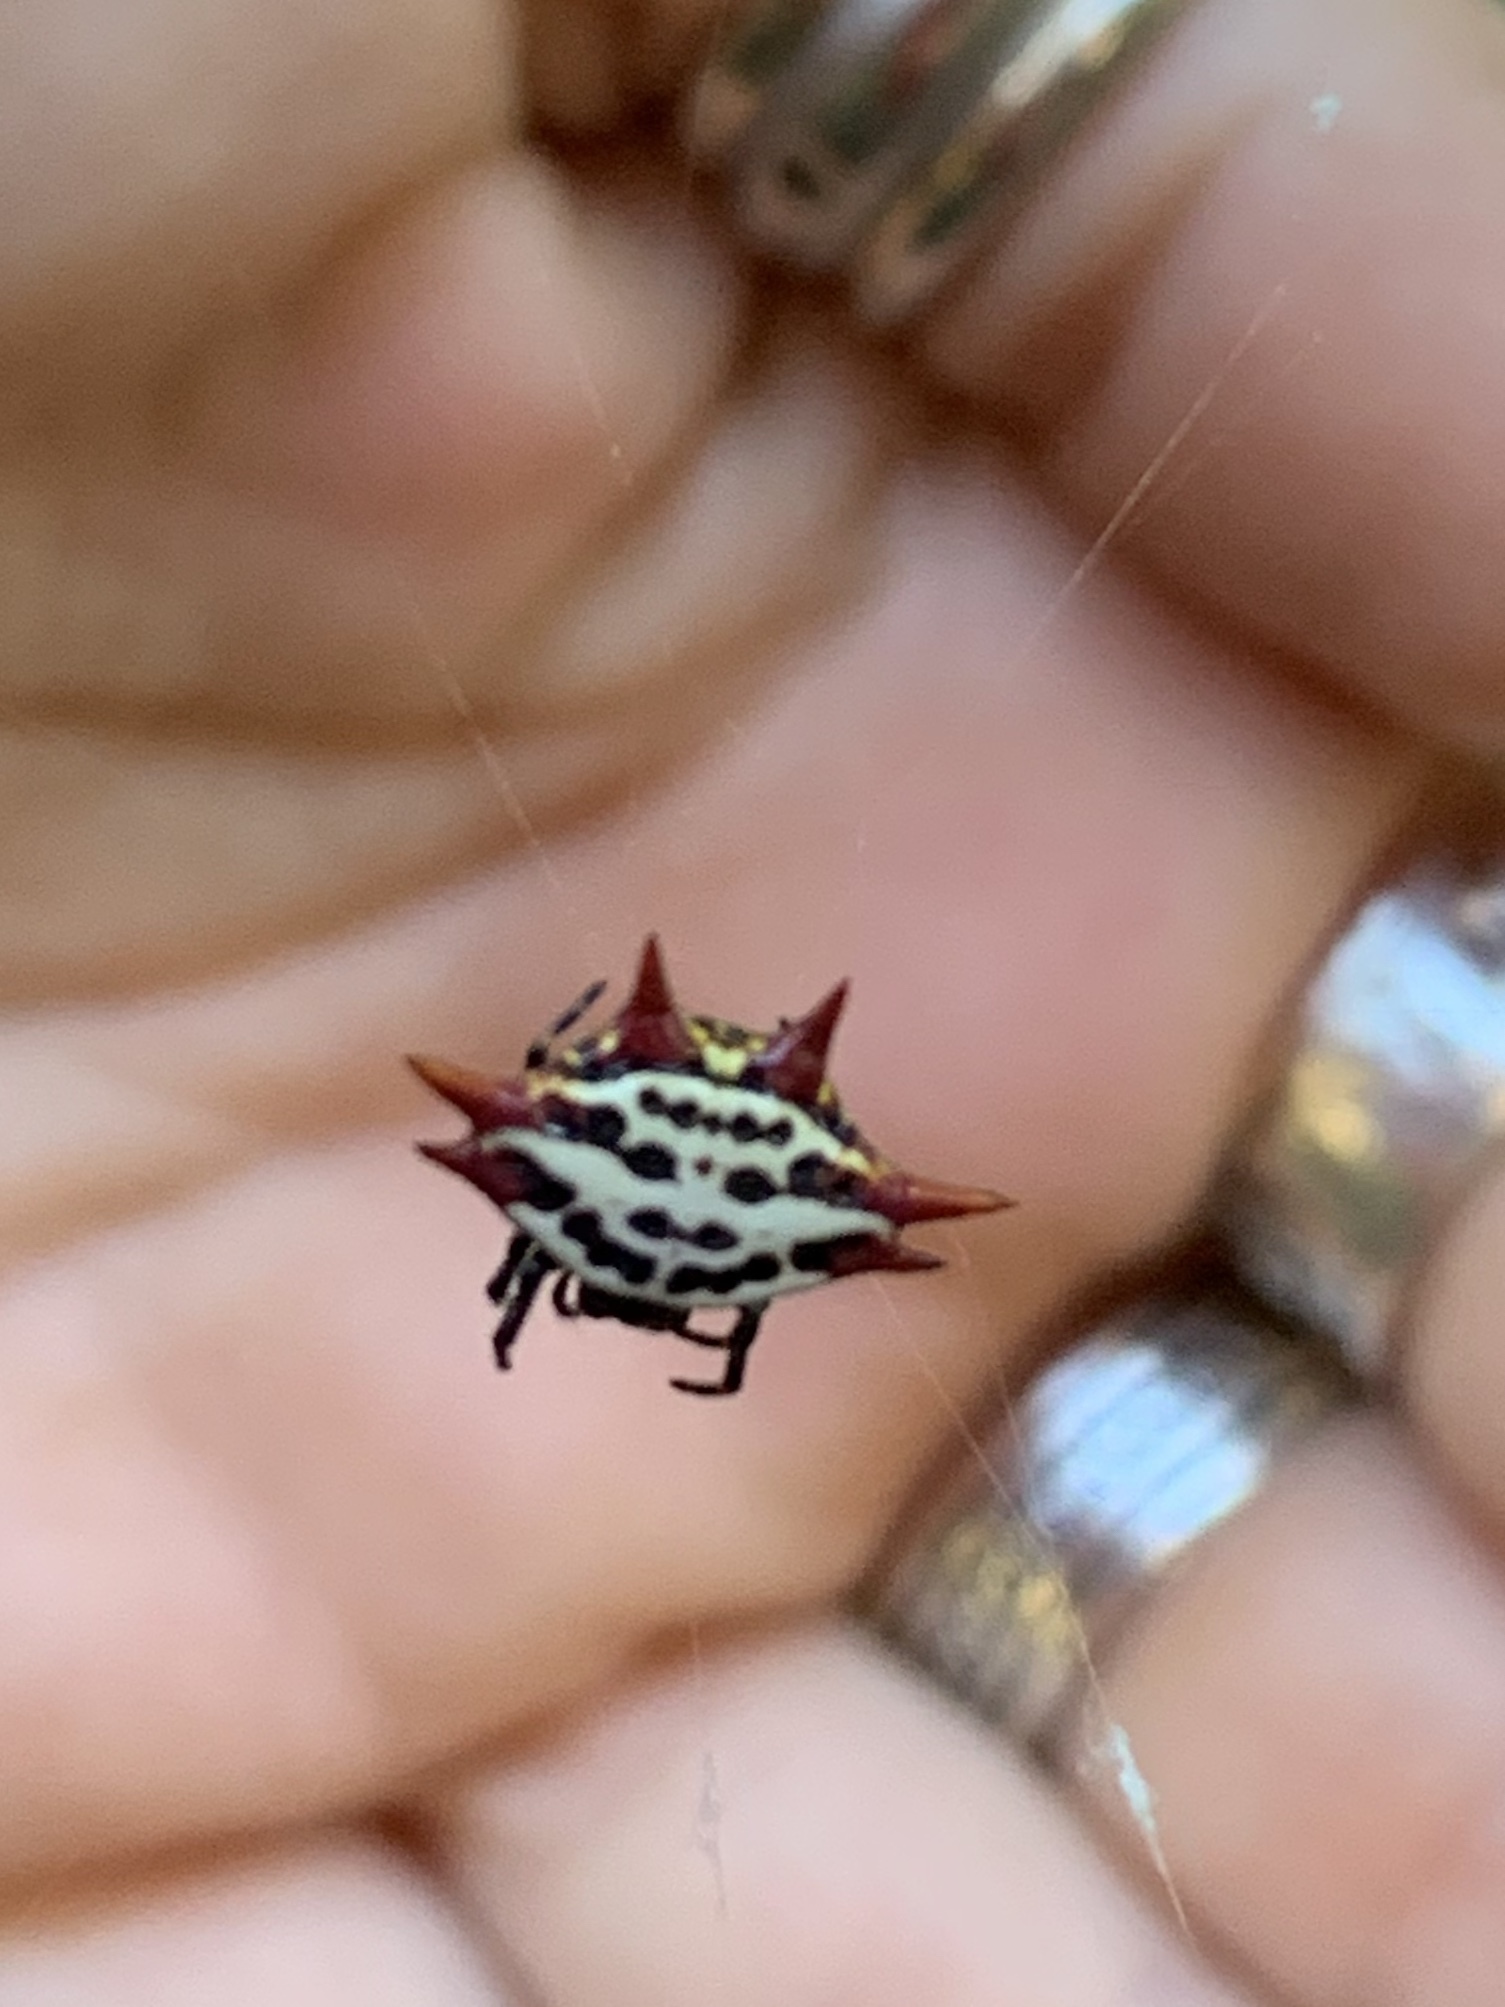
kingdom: Animalia
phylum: Arthropoda
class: Arachnida
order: Araneae
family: Araneidae
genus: Gasteracantha
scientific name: Gasteracantha cancriformis
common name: Orb weavers
